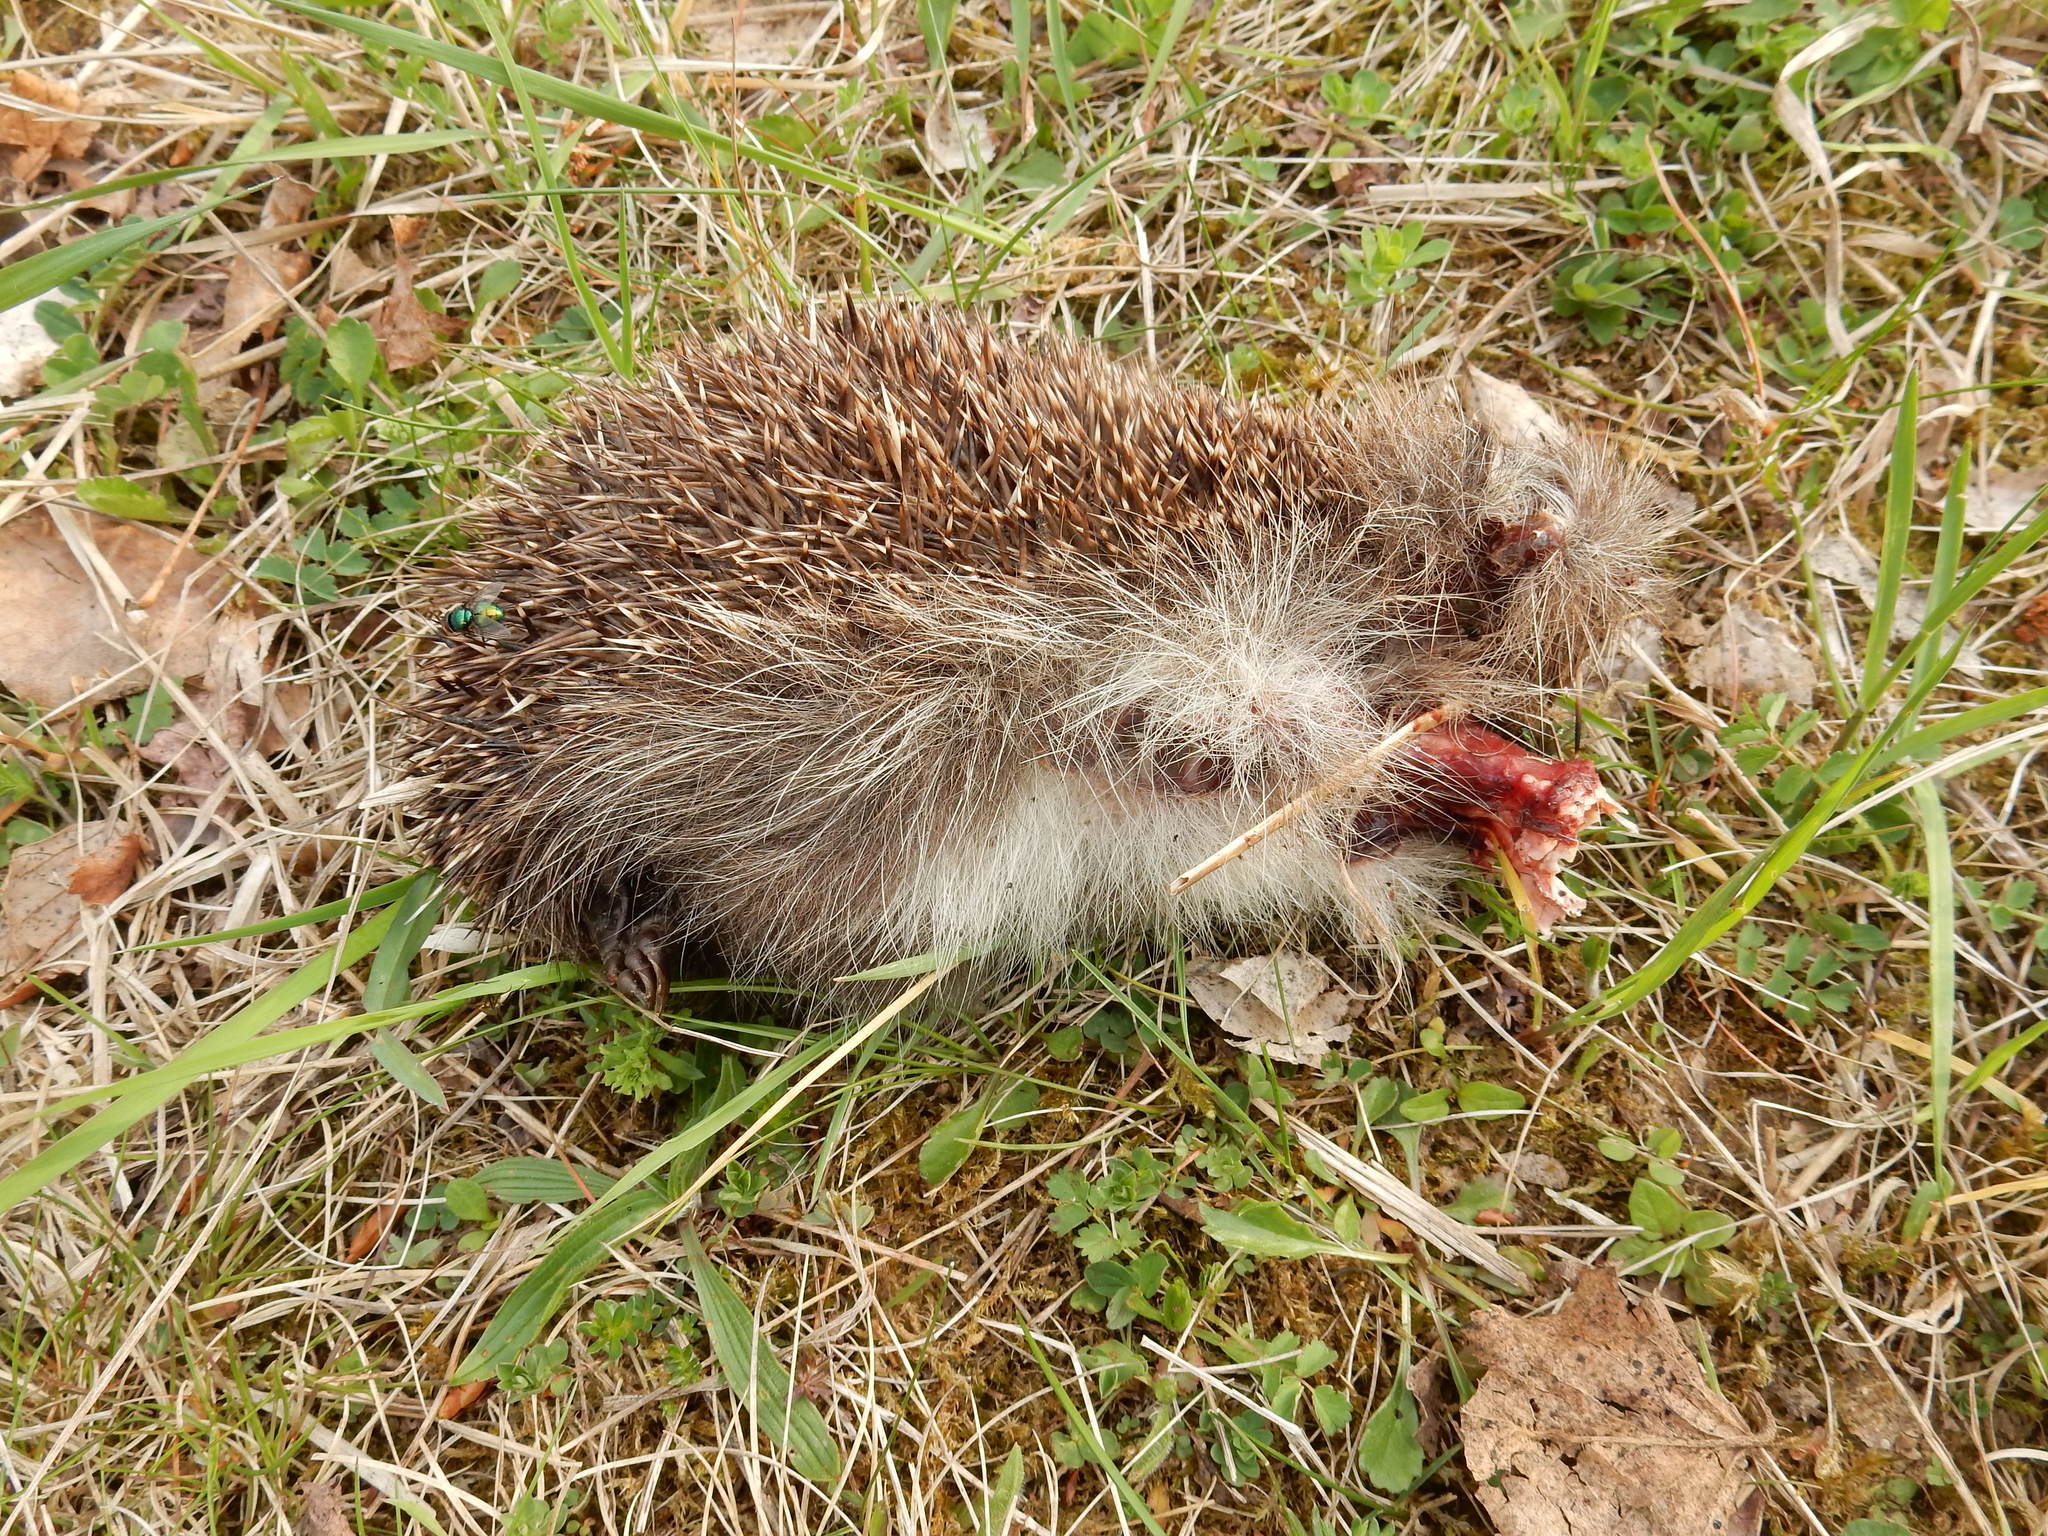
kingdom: Animalia
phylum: Chordata
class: Mammalia
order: Erinaceomorpha
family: Erinaceidae
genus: Erinaceus
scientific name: Erinaceus europaeus
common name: West european hedgehog
